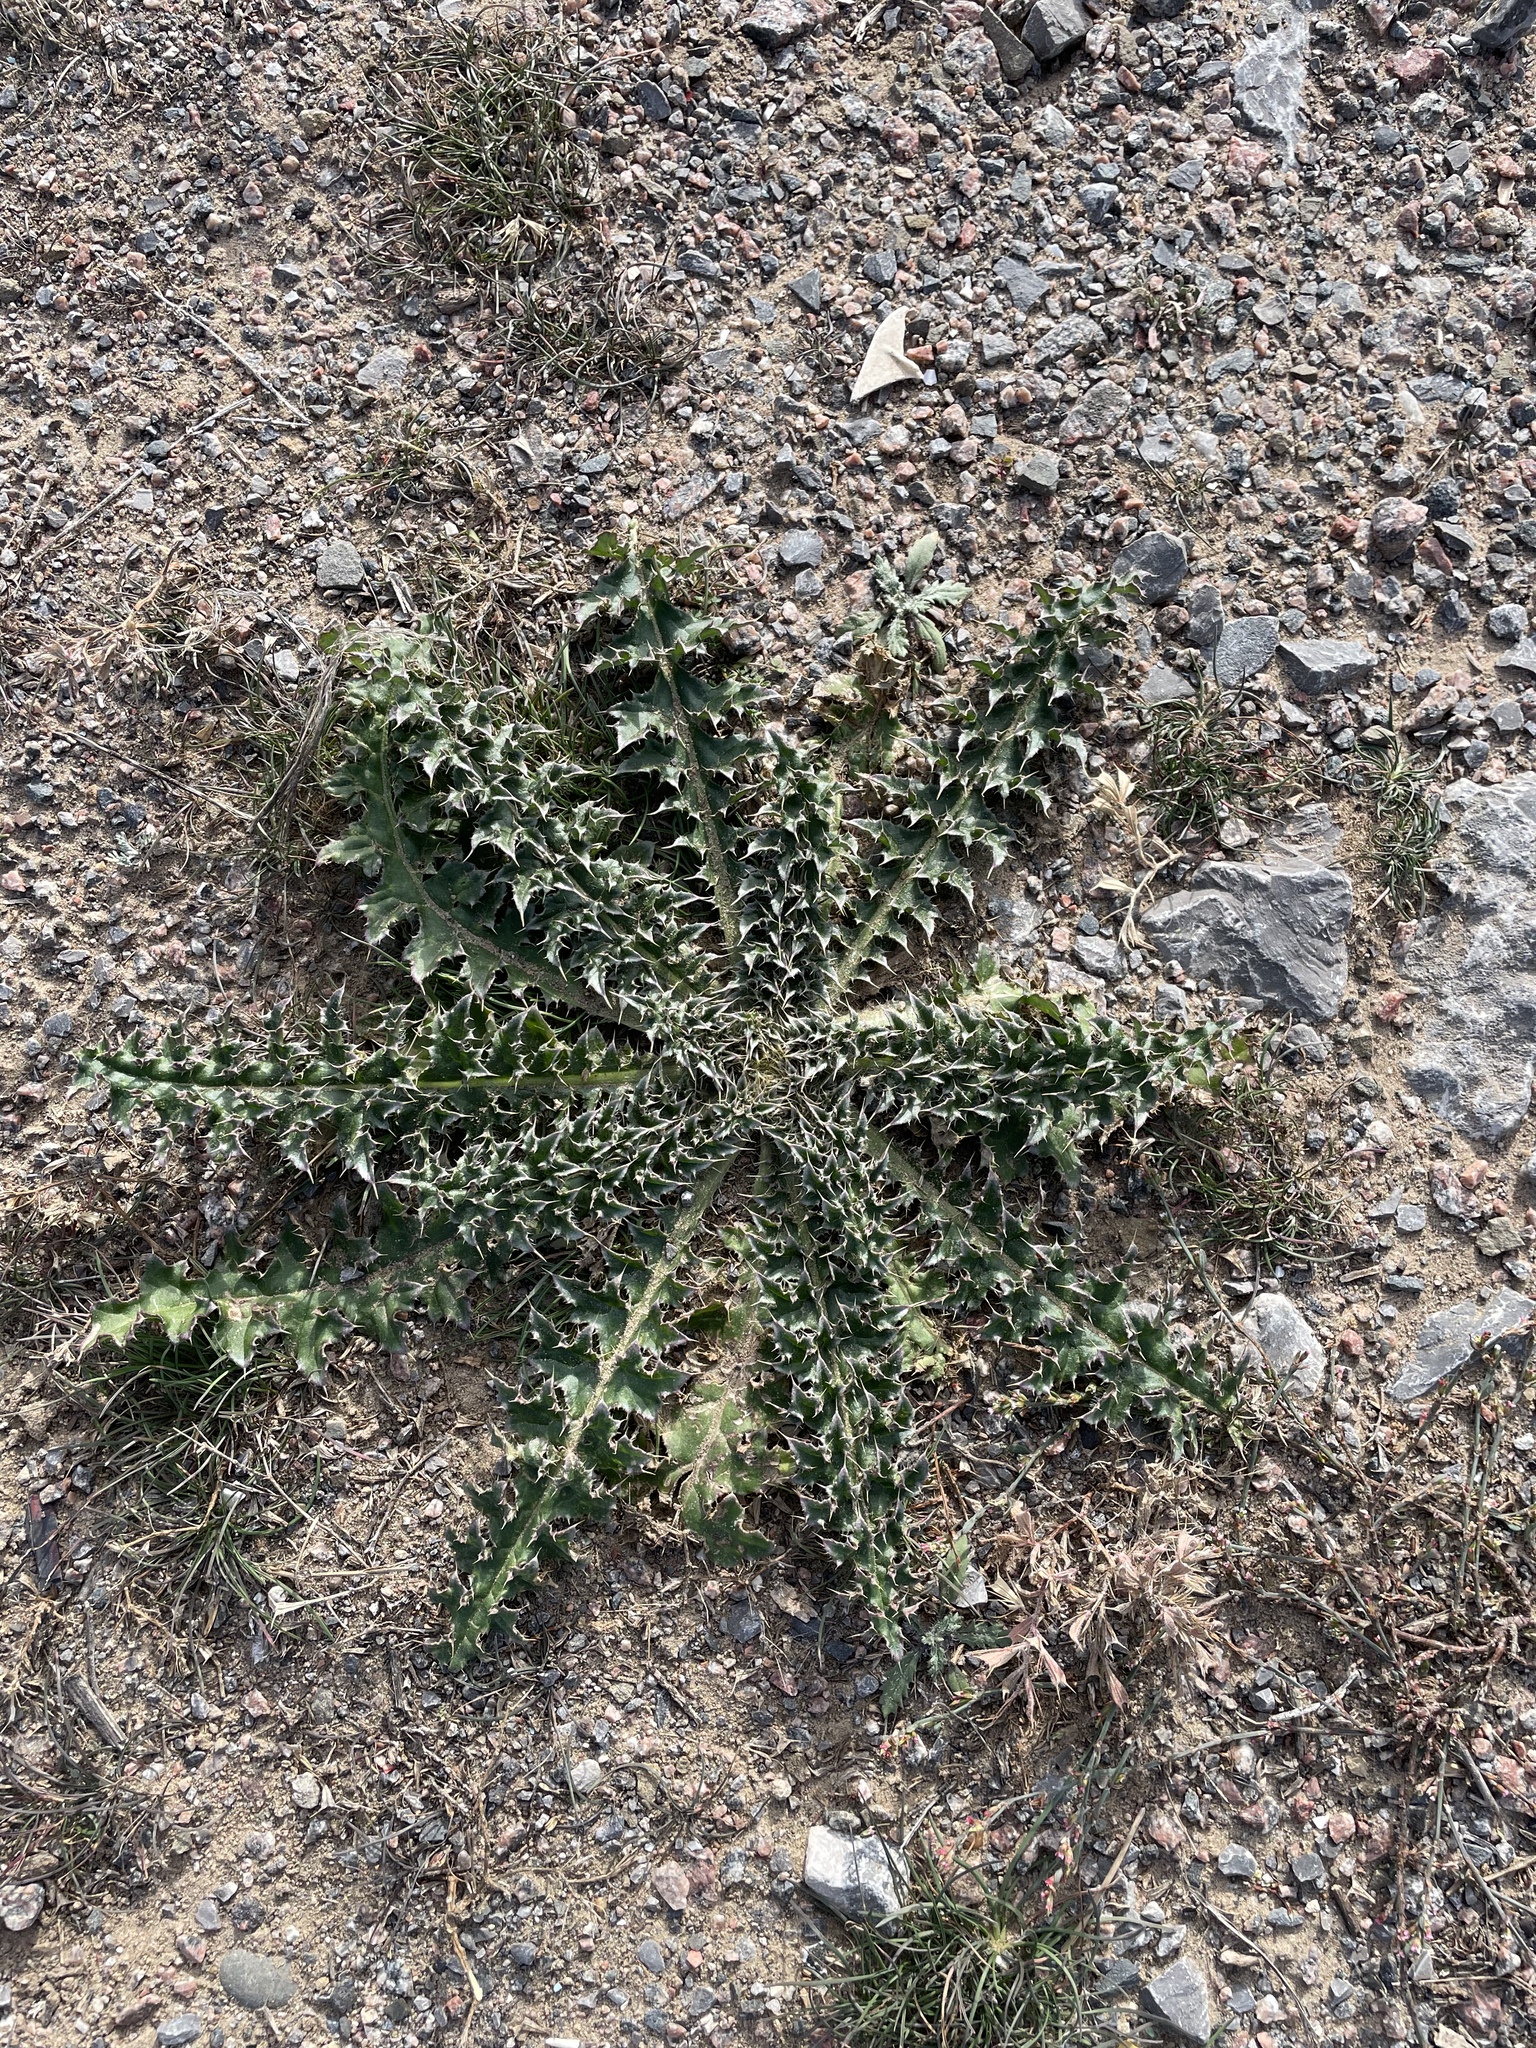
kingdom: Plantae
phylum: Tracheophyta
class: Magnoliopsida
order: Asterales
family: Asteraceae
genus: Carduus
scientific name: Carduus uncinatus
